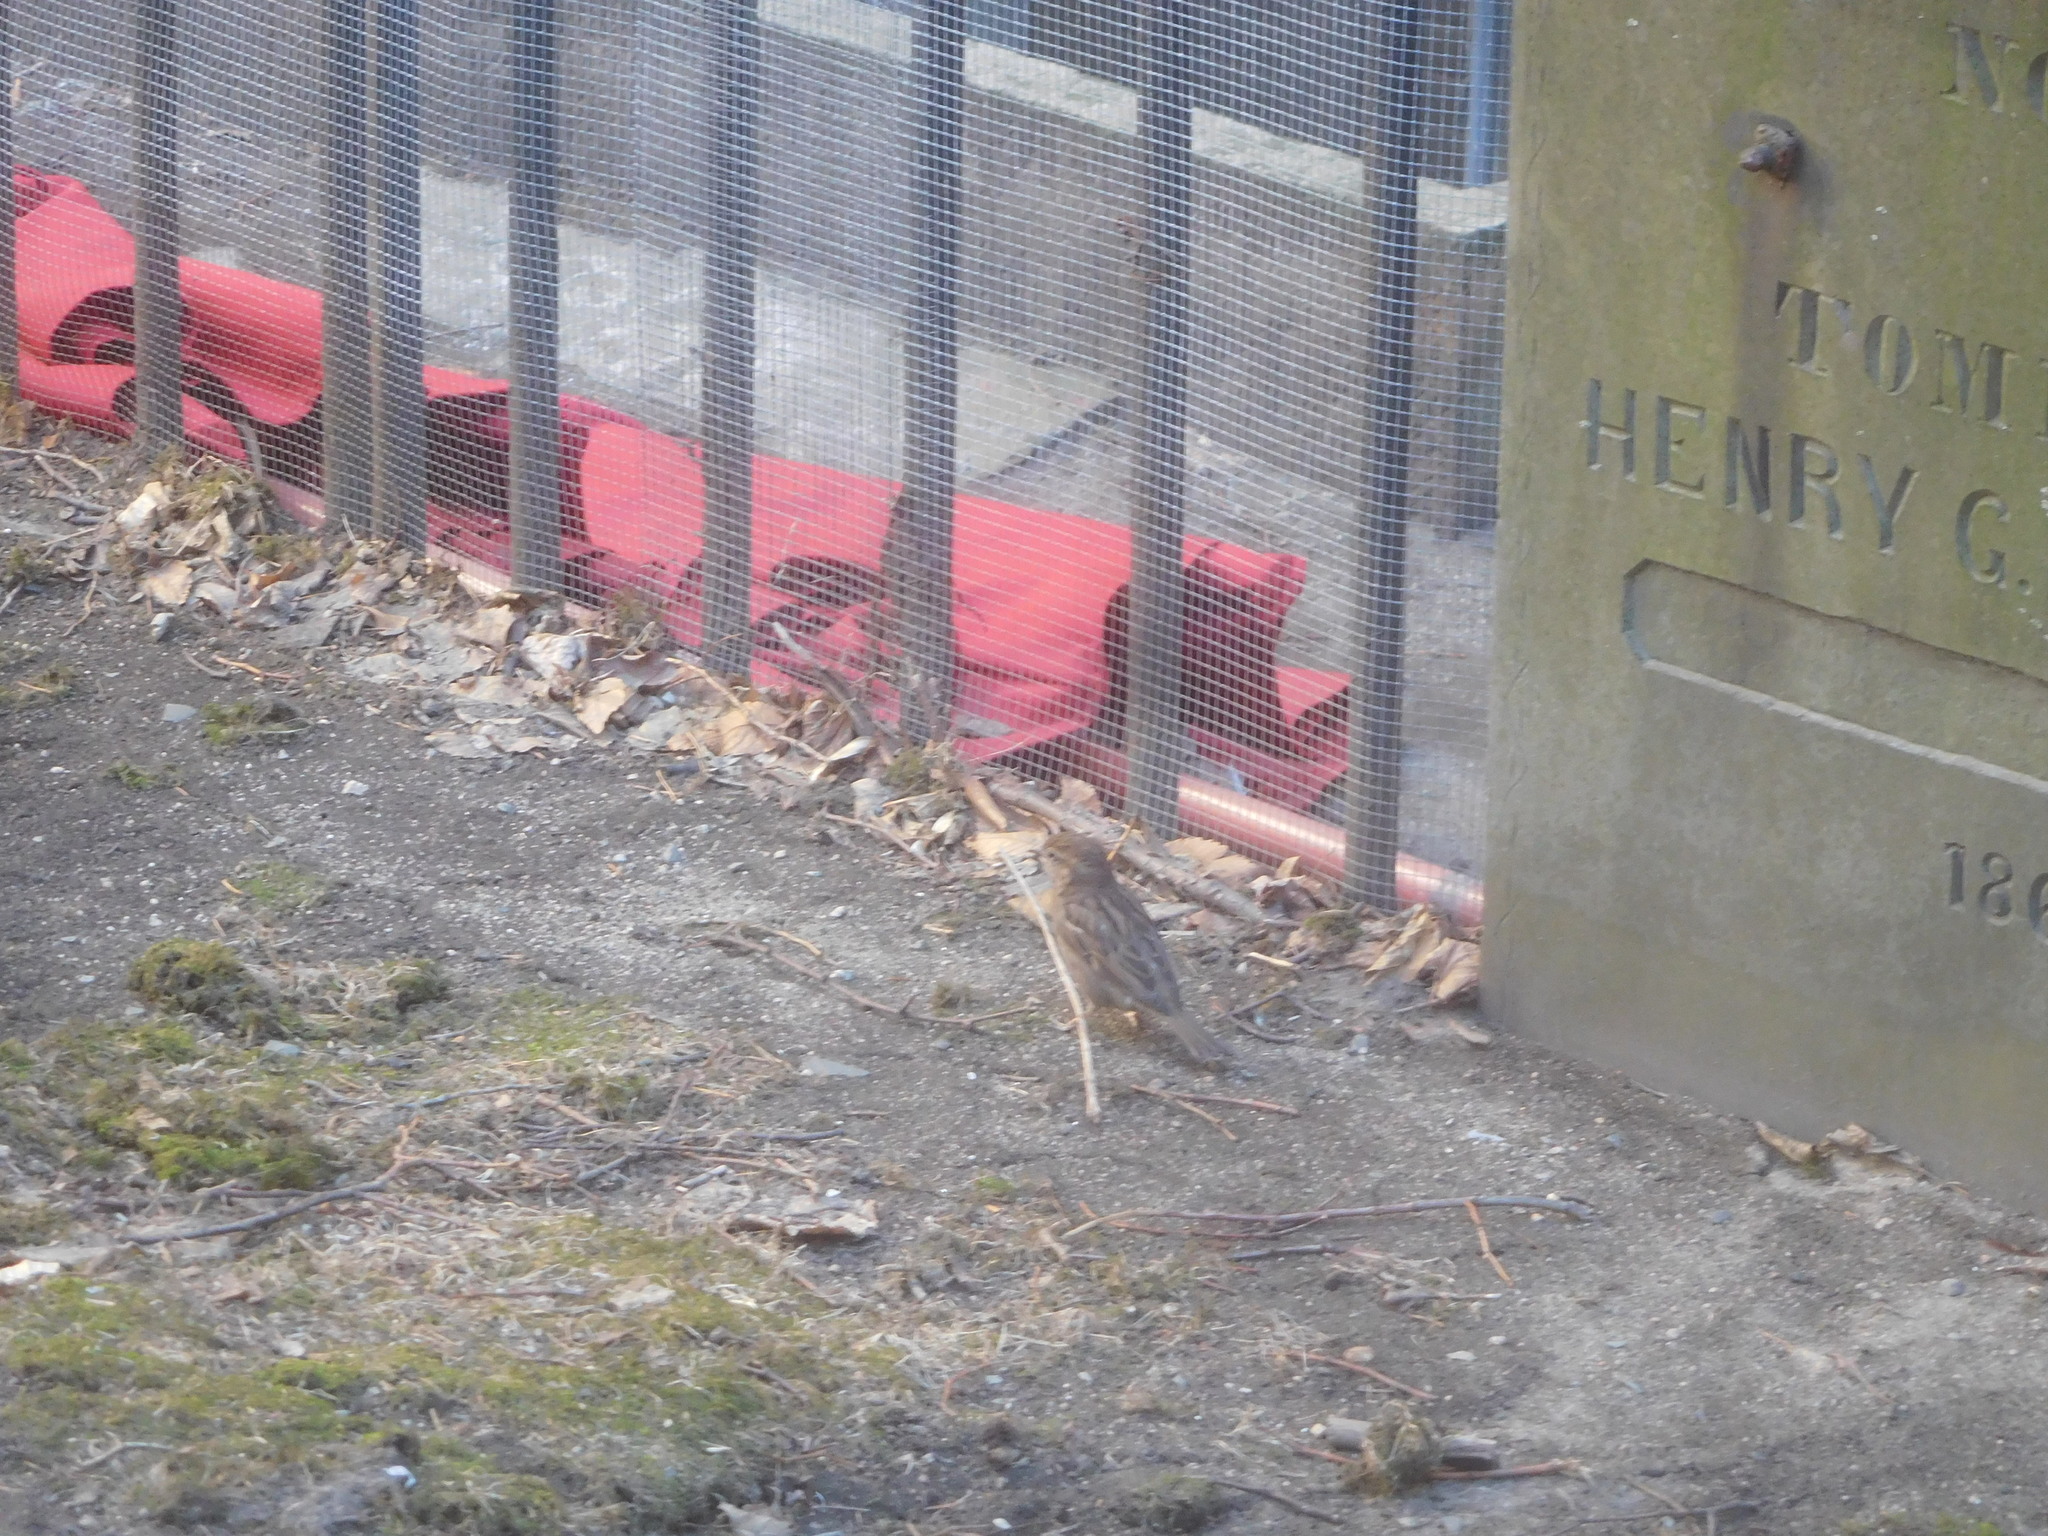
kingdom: Animalia
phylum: Chordata
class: Aves
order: Passeriformes
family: Passeridae
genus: Passer
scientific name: Passer domesticus
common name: House sparrow
